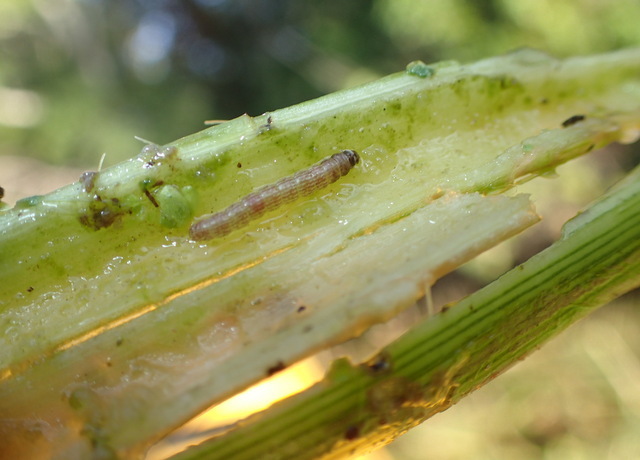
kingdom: Animalia
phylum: Arthropoda
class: Insecta
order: Lepidoptera
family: Pyralidae
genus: Macrorrhinia
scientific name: Macrorrhinia endonephele
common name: Alligator weed stemborer moth
